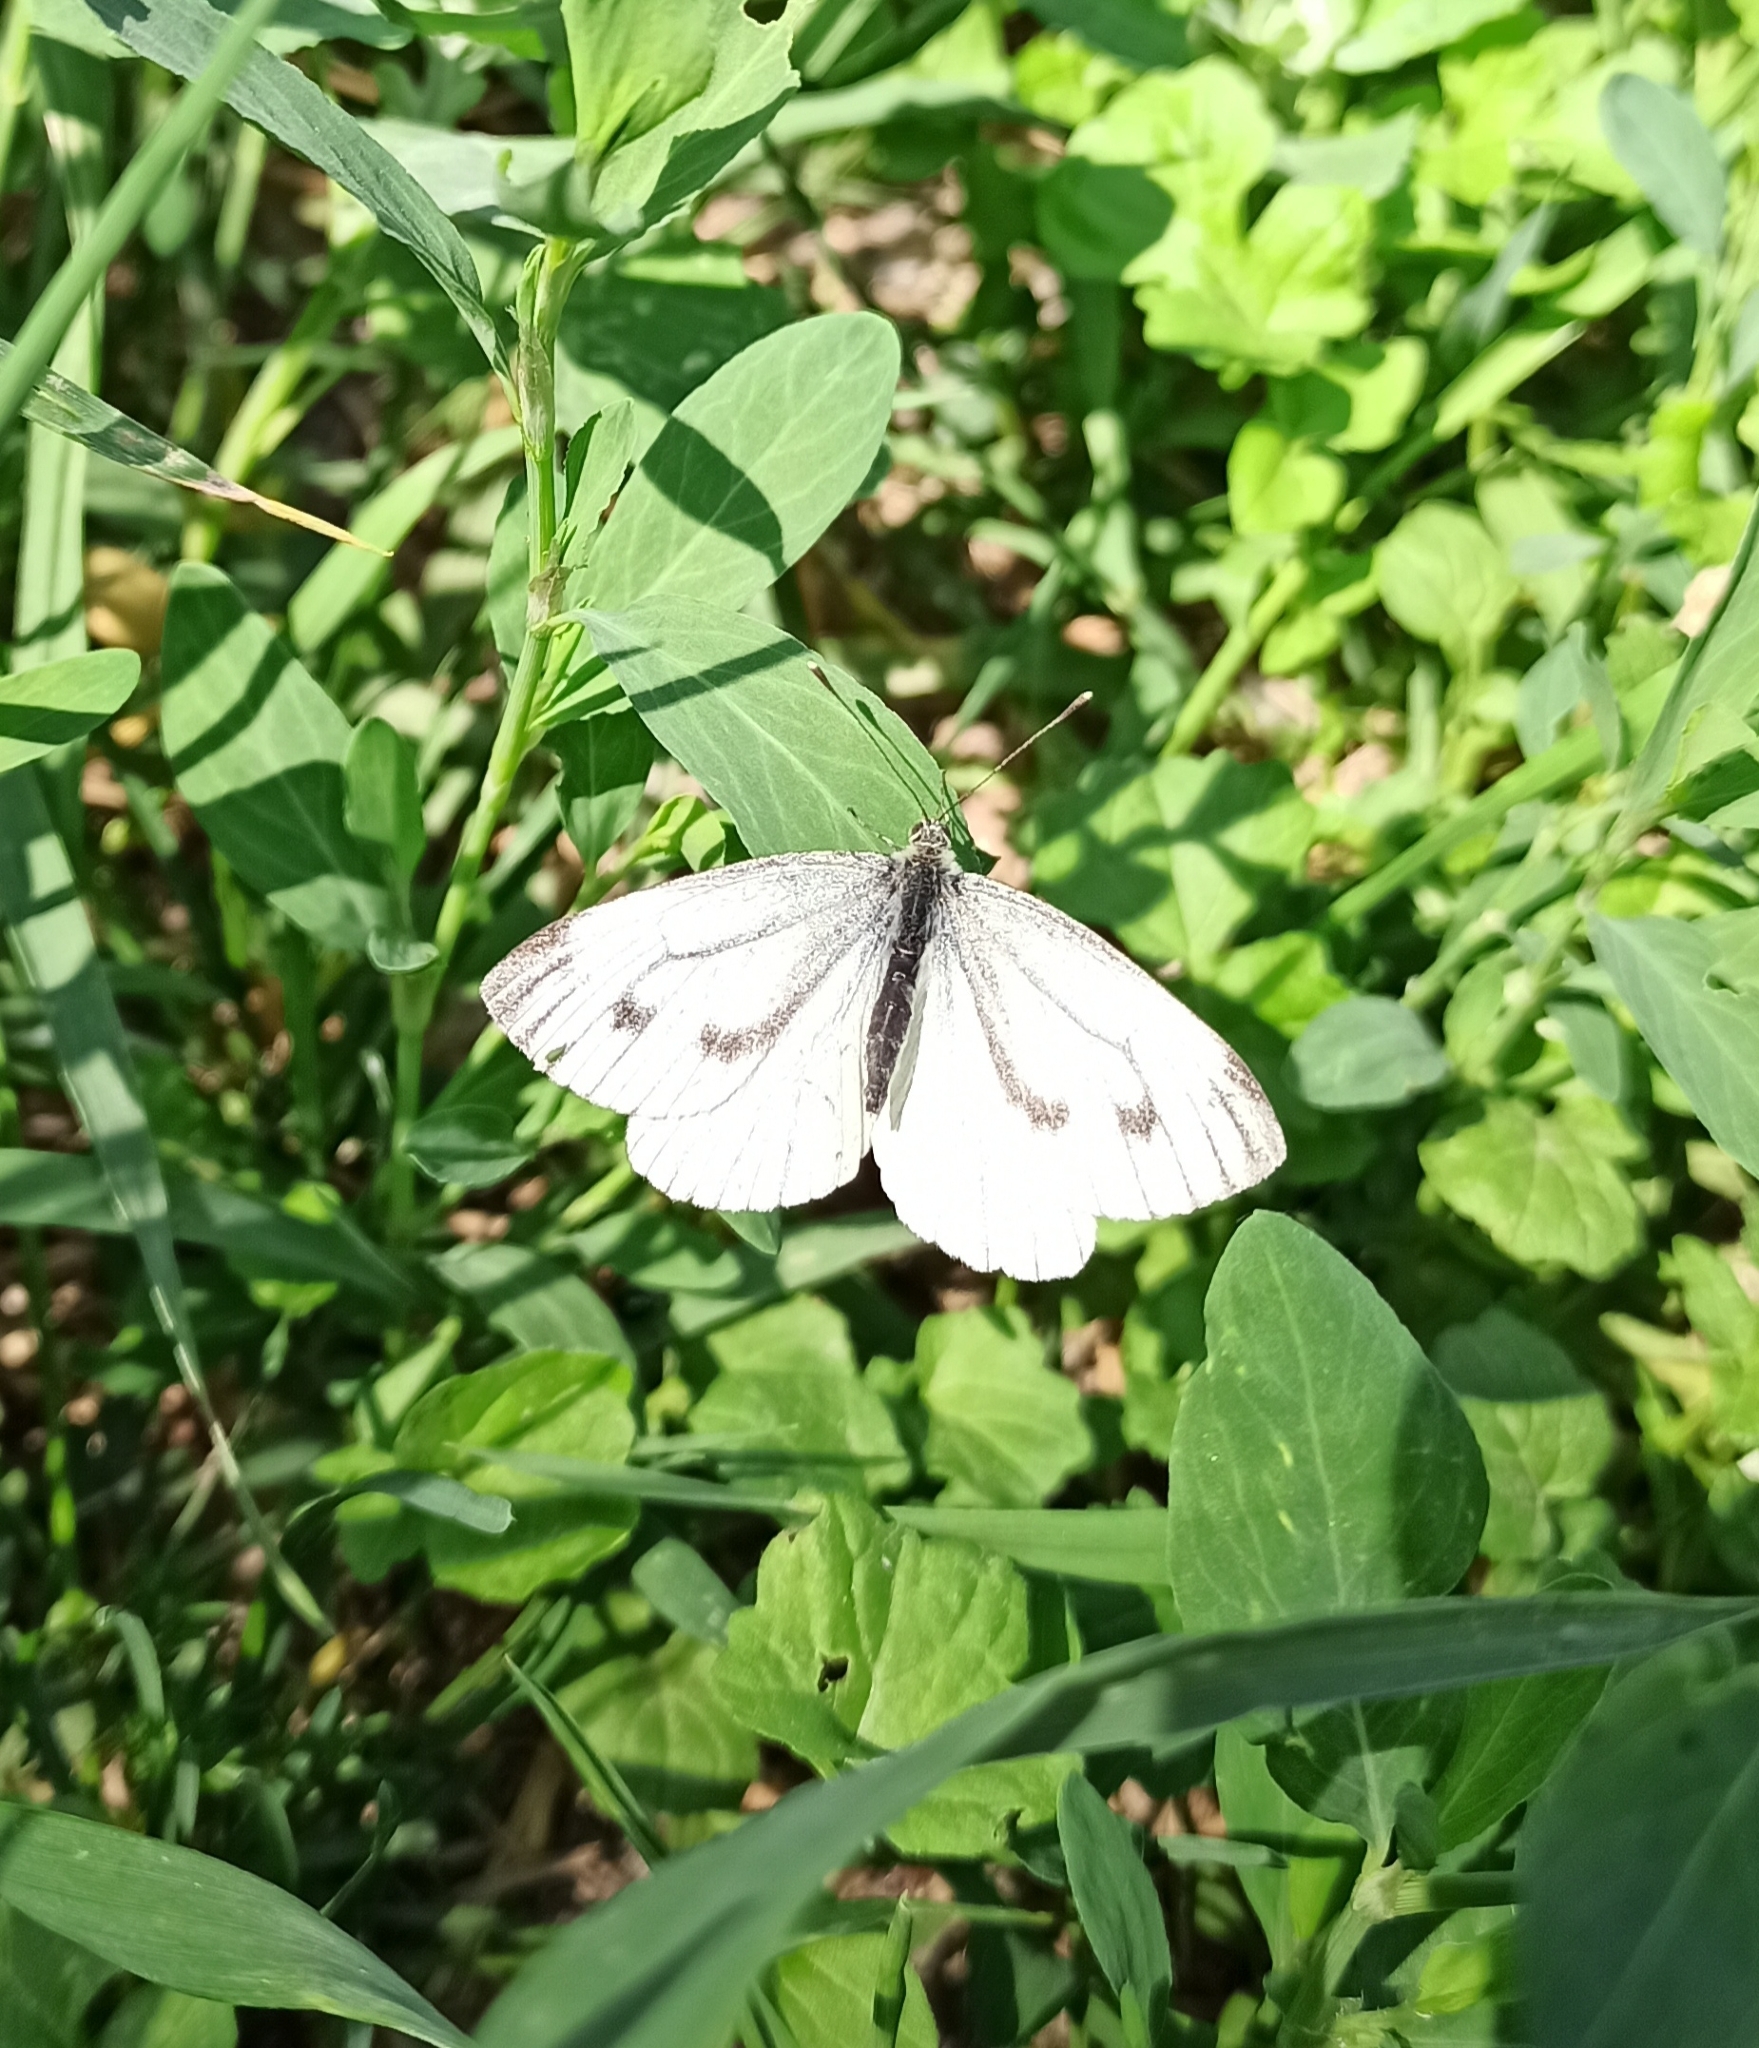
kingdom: Animalia
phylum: Arthropoda
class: Insecta
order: Lepidoptera
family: Pieridae
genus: Pieris
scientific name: Pieris napi
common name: Green-veined white
